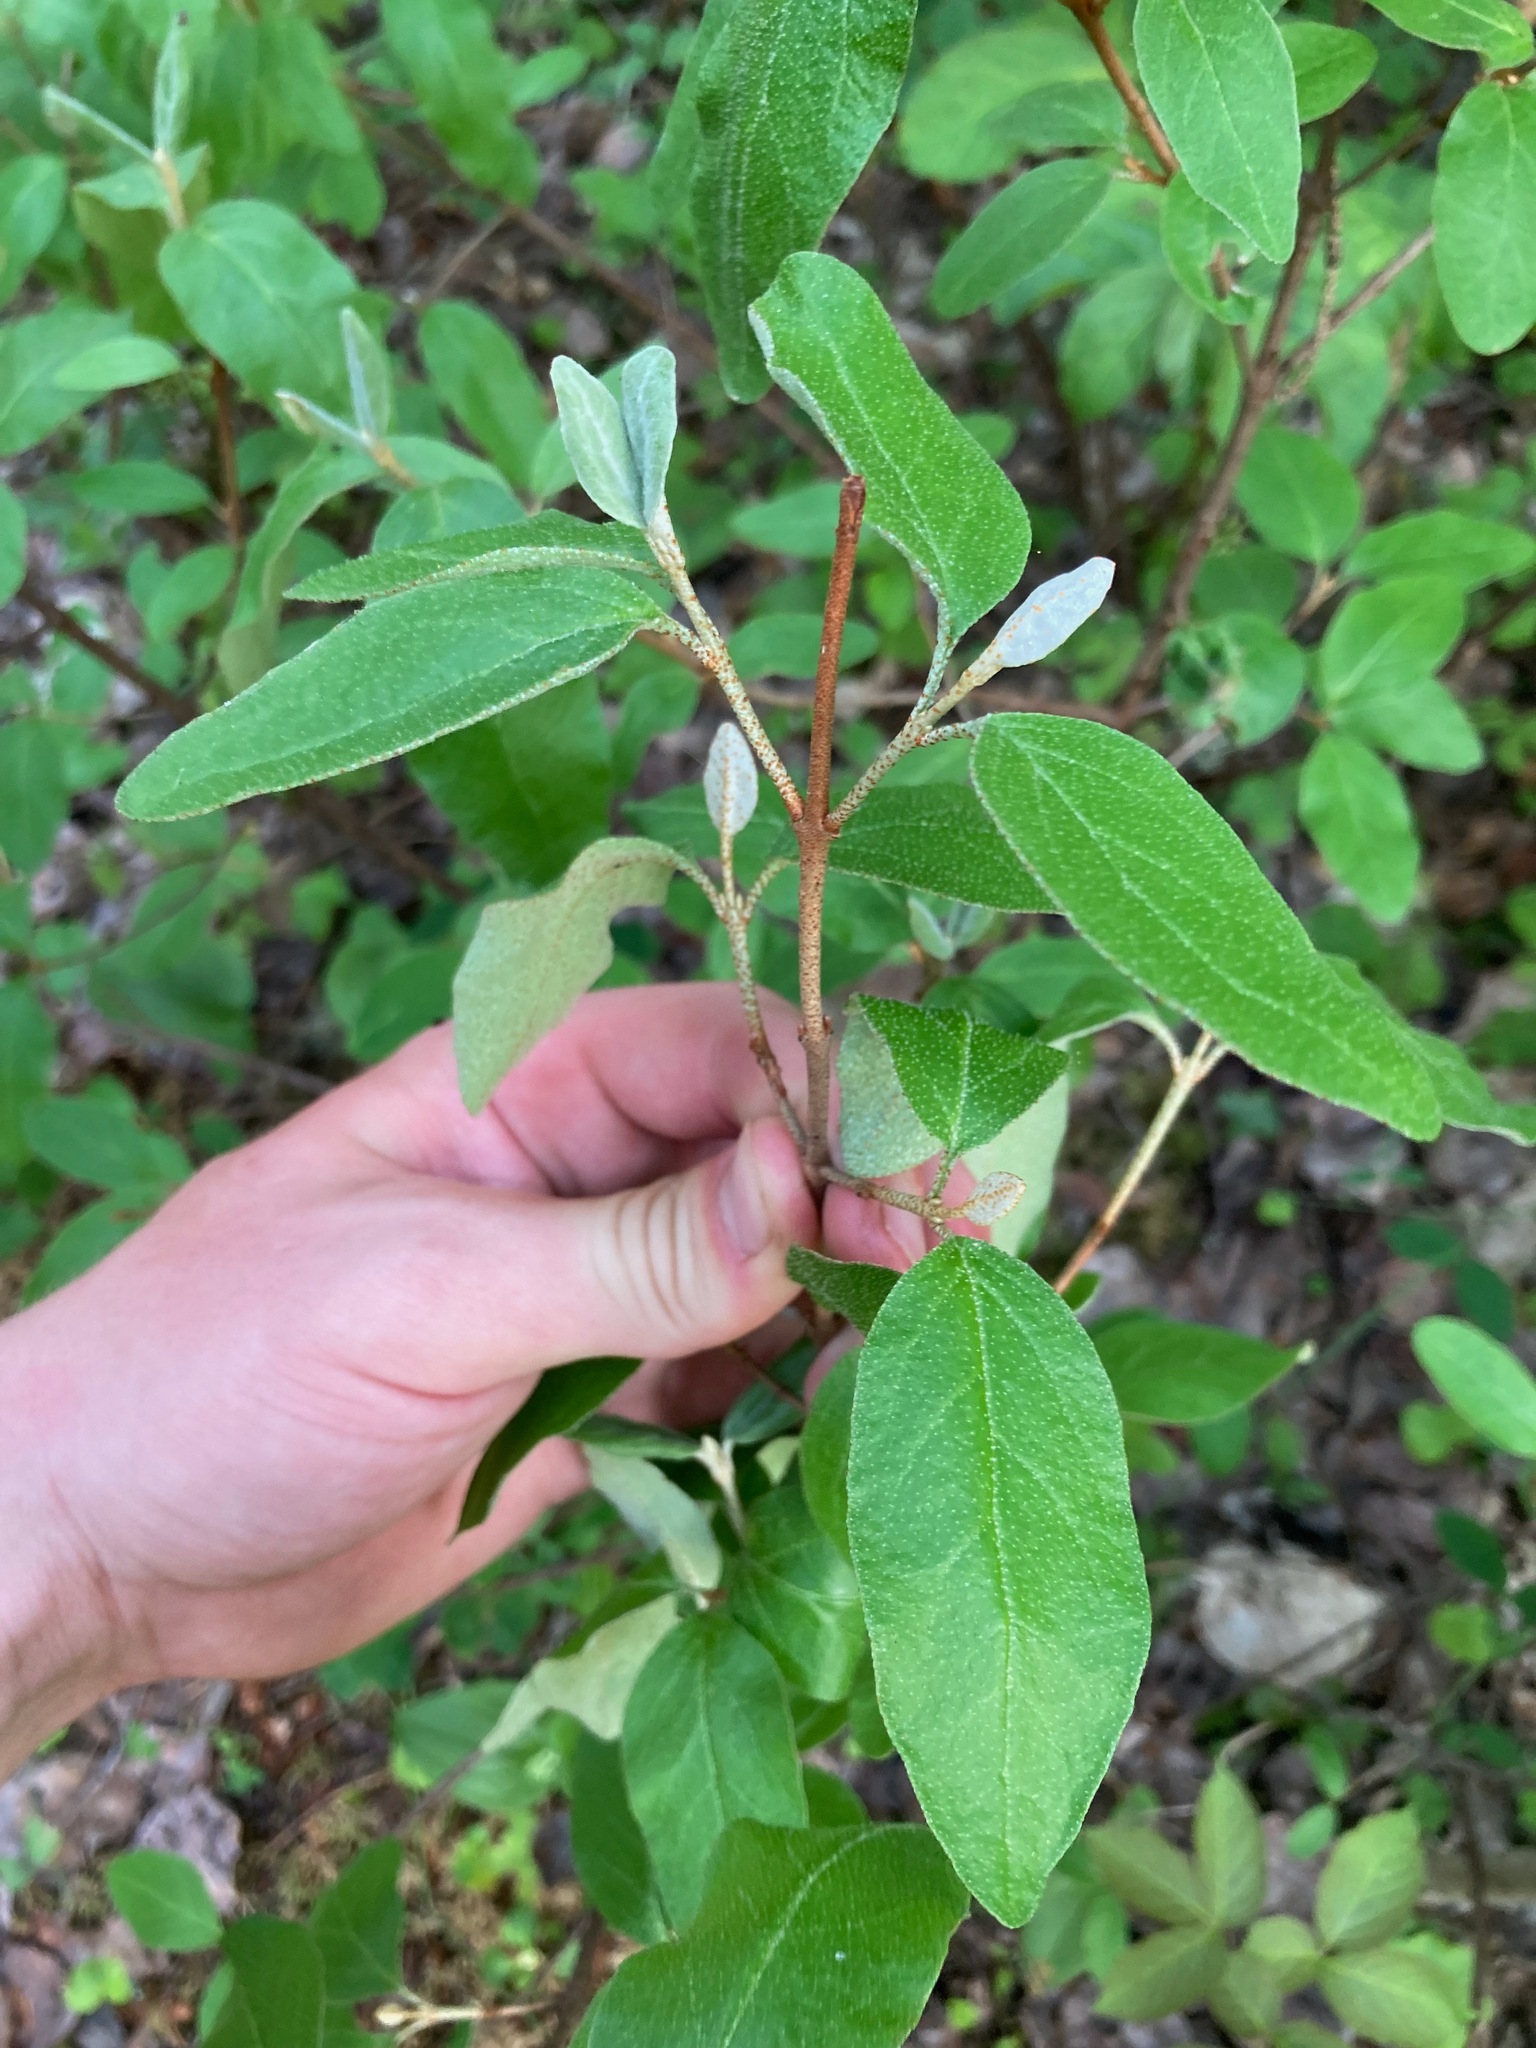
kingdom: Plantae
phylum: Tracheophyta
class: Magnoliopsida
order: Rosales
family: Elaeagnaceae
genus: Shepherdia
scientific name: Shepherdia canadensis
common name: Soapberry
